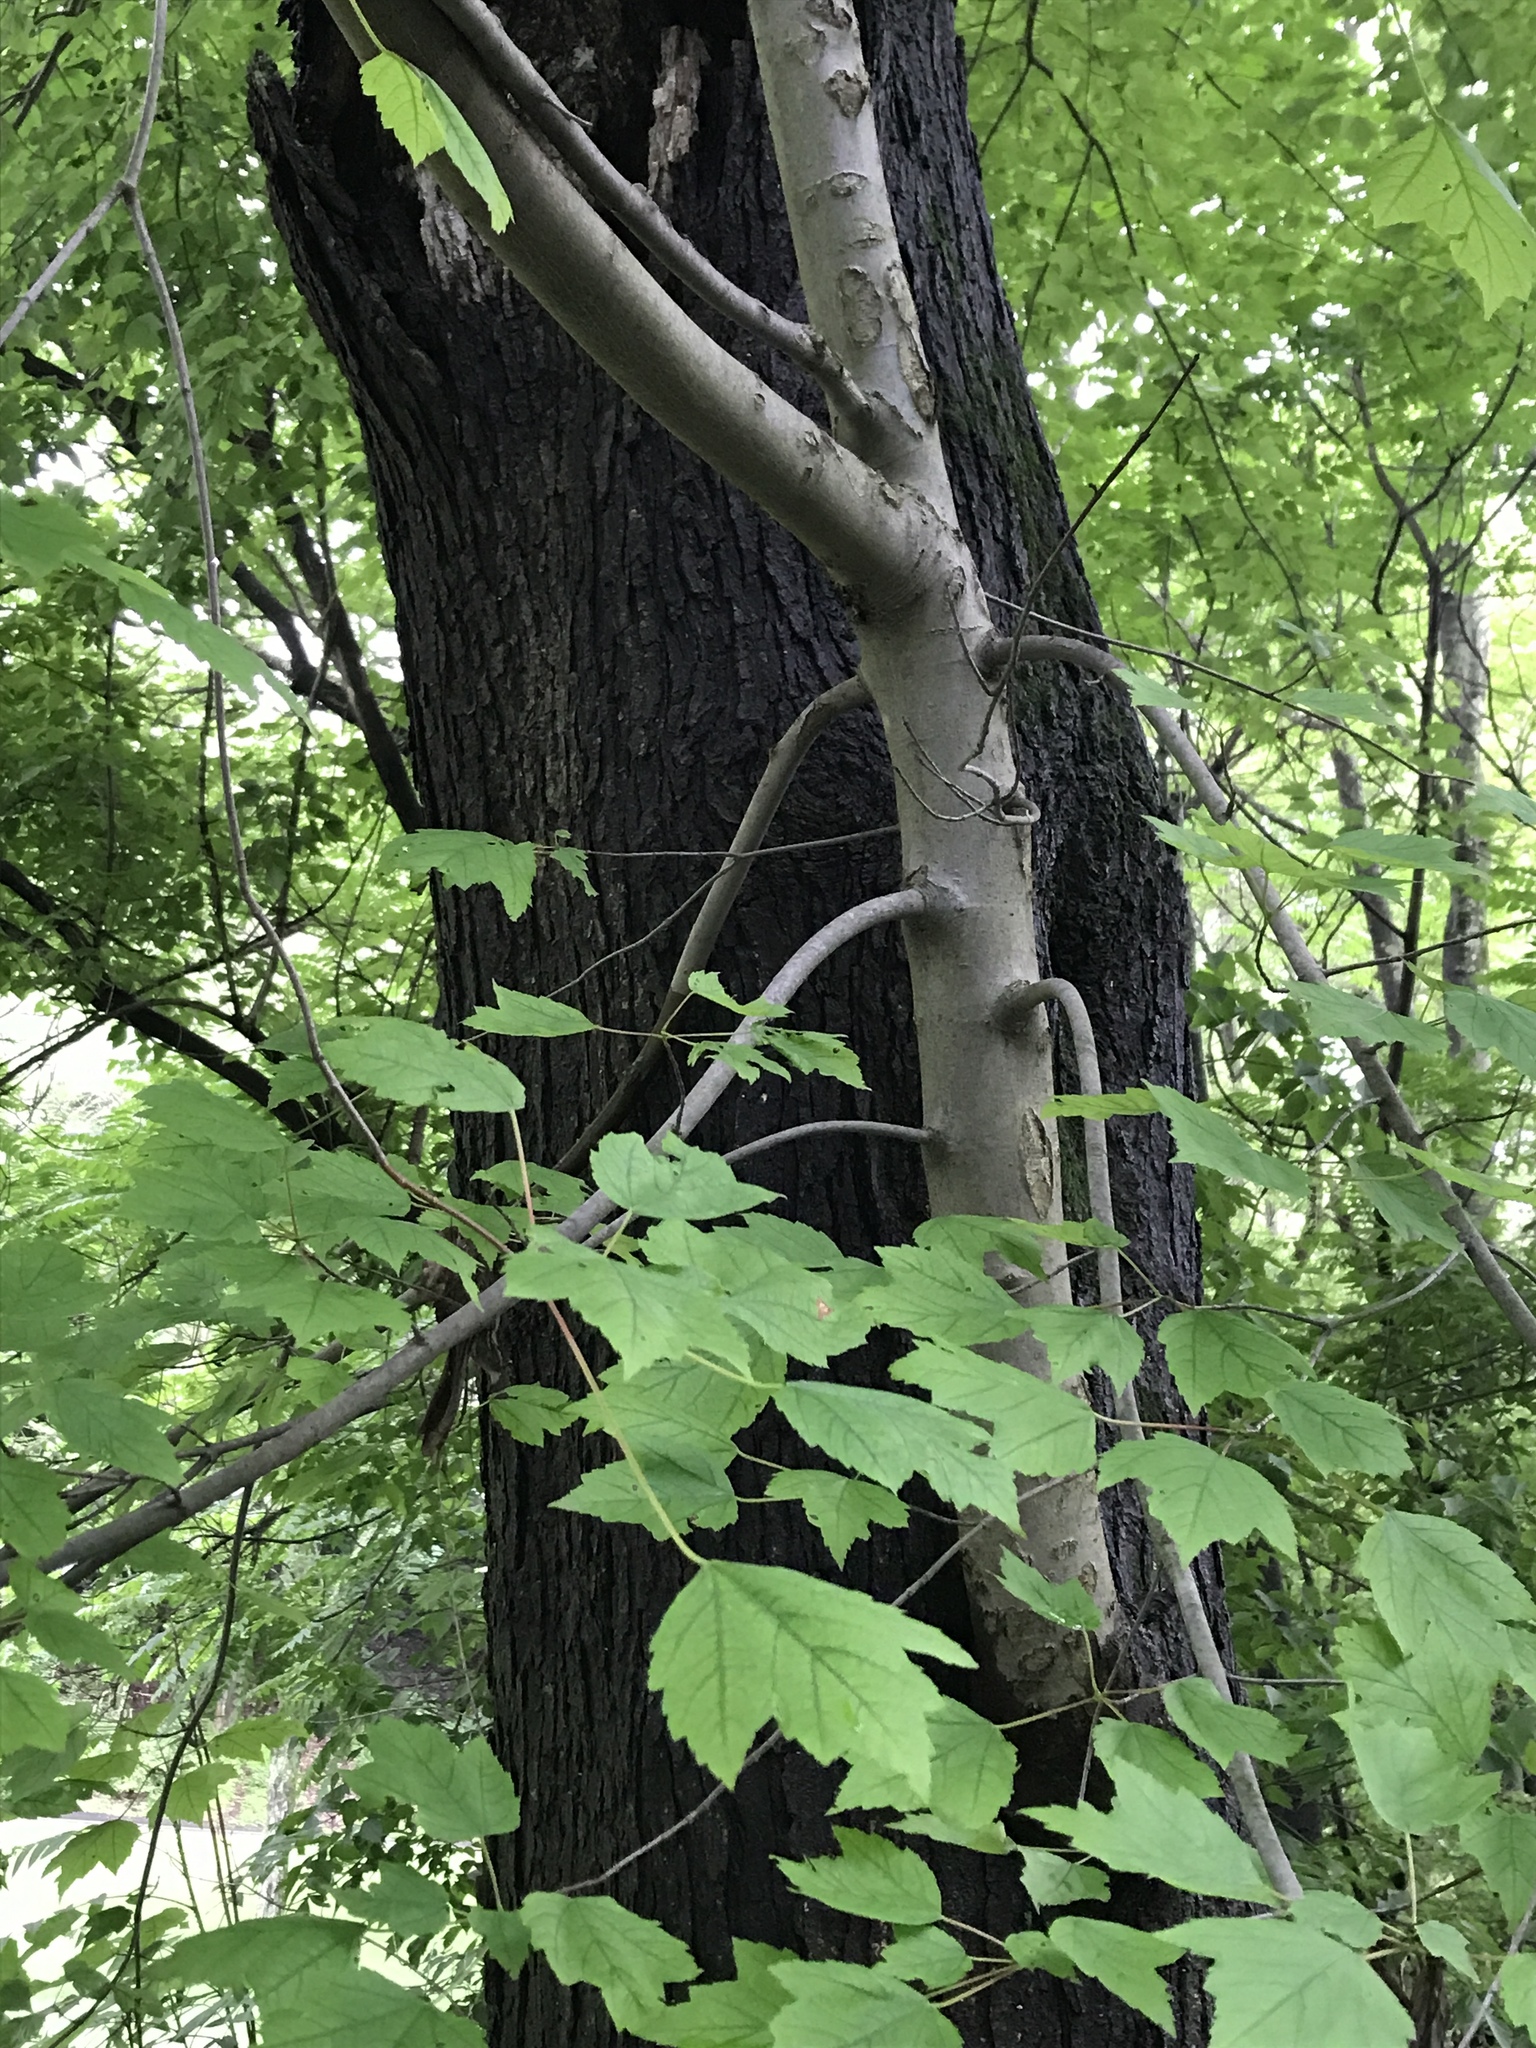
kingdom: Plantae
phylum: Tracheophyta
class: Magnoliopsida
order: Sapindales
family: Sapindaceae
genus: Acer
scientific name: Acer rubrum
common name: Red maple
